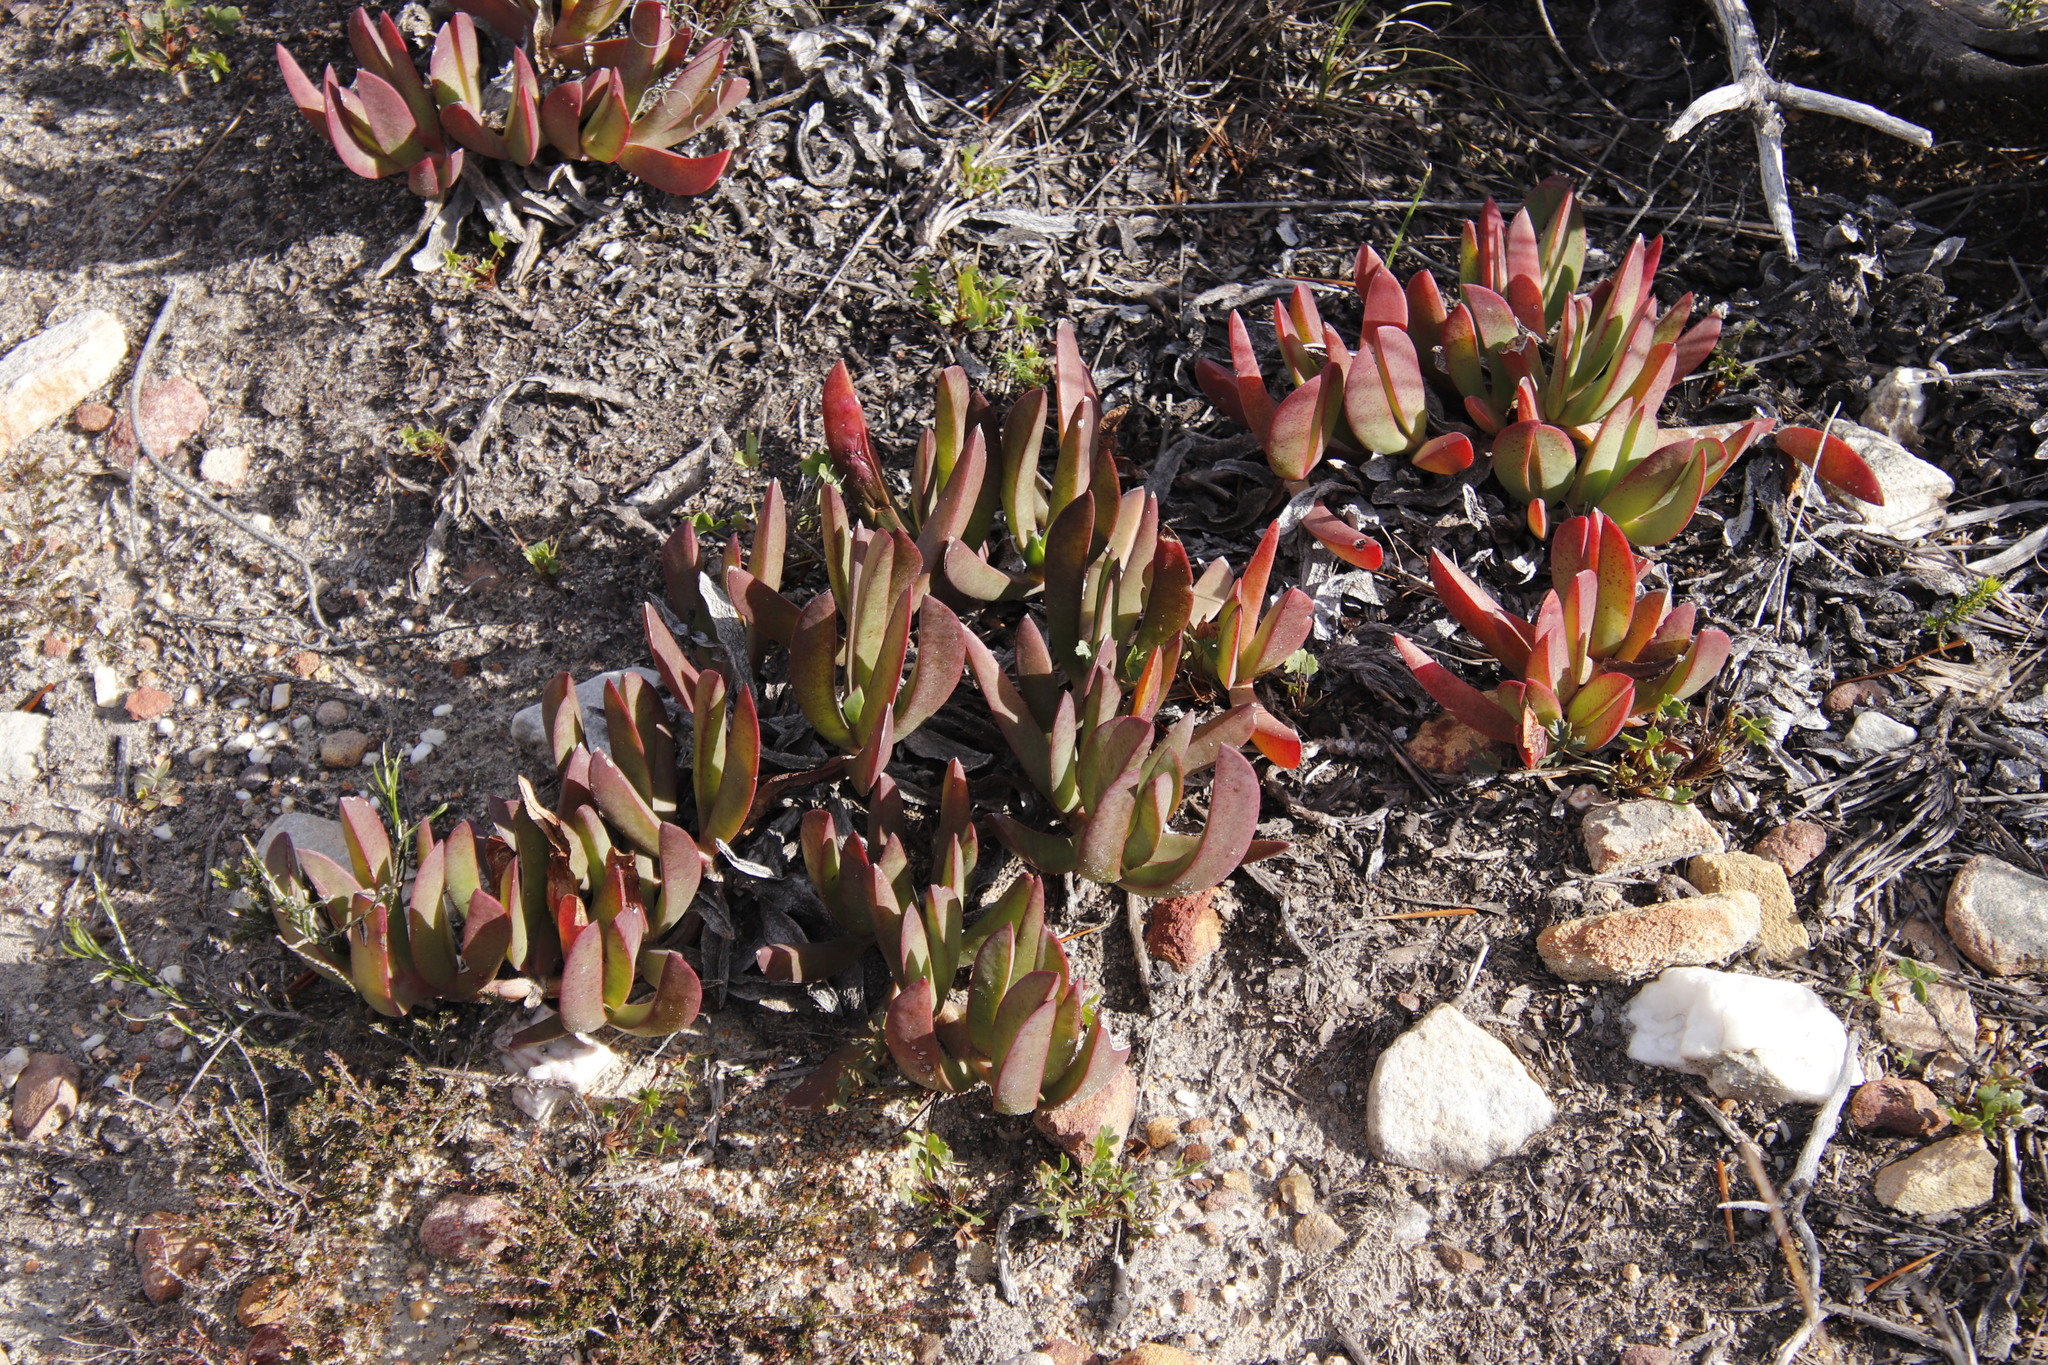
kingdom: Plantae
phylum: Tracheophyta
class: Magnoliopsida
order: Caryophyllales
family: Aizoaceae
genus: Carpobrotus
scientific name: Carpobrotus mellei
